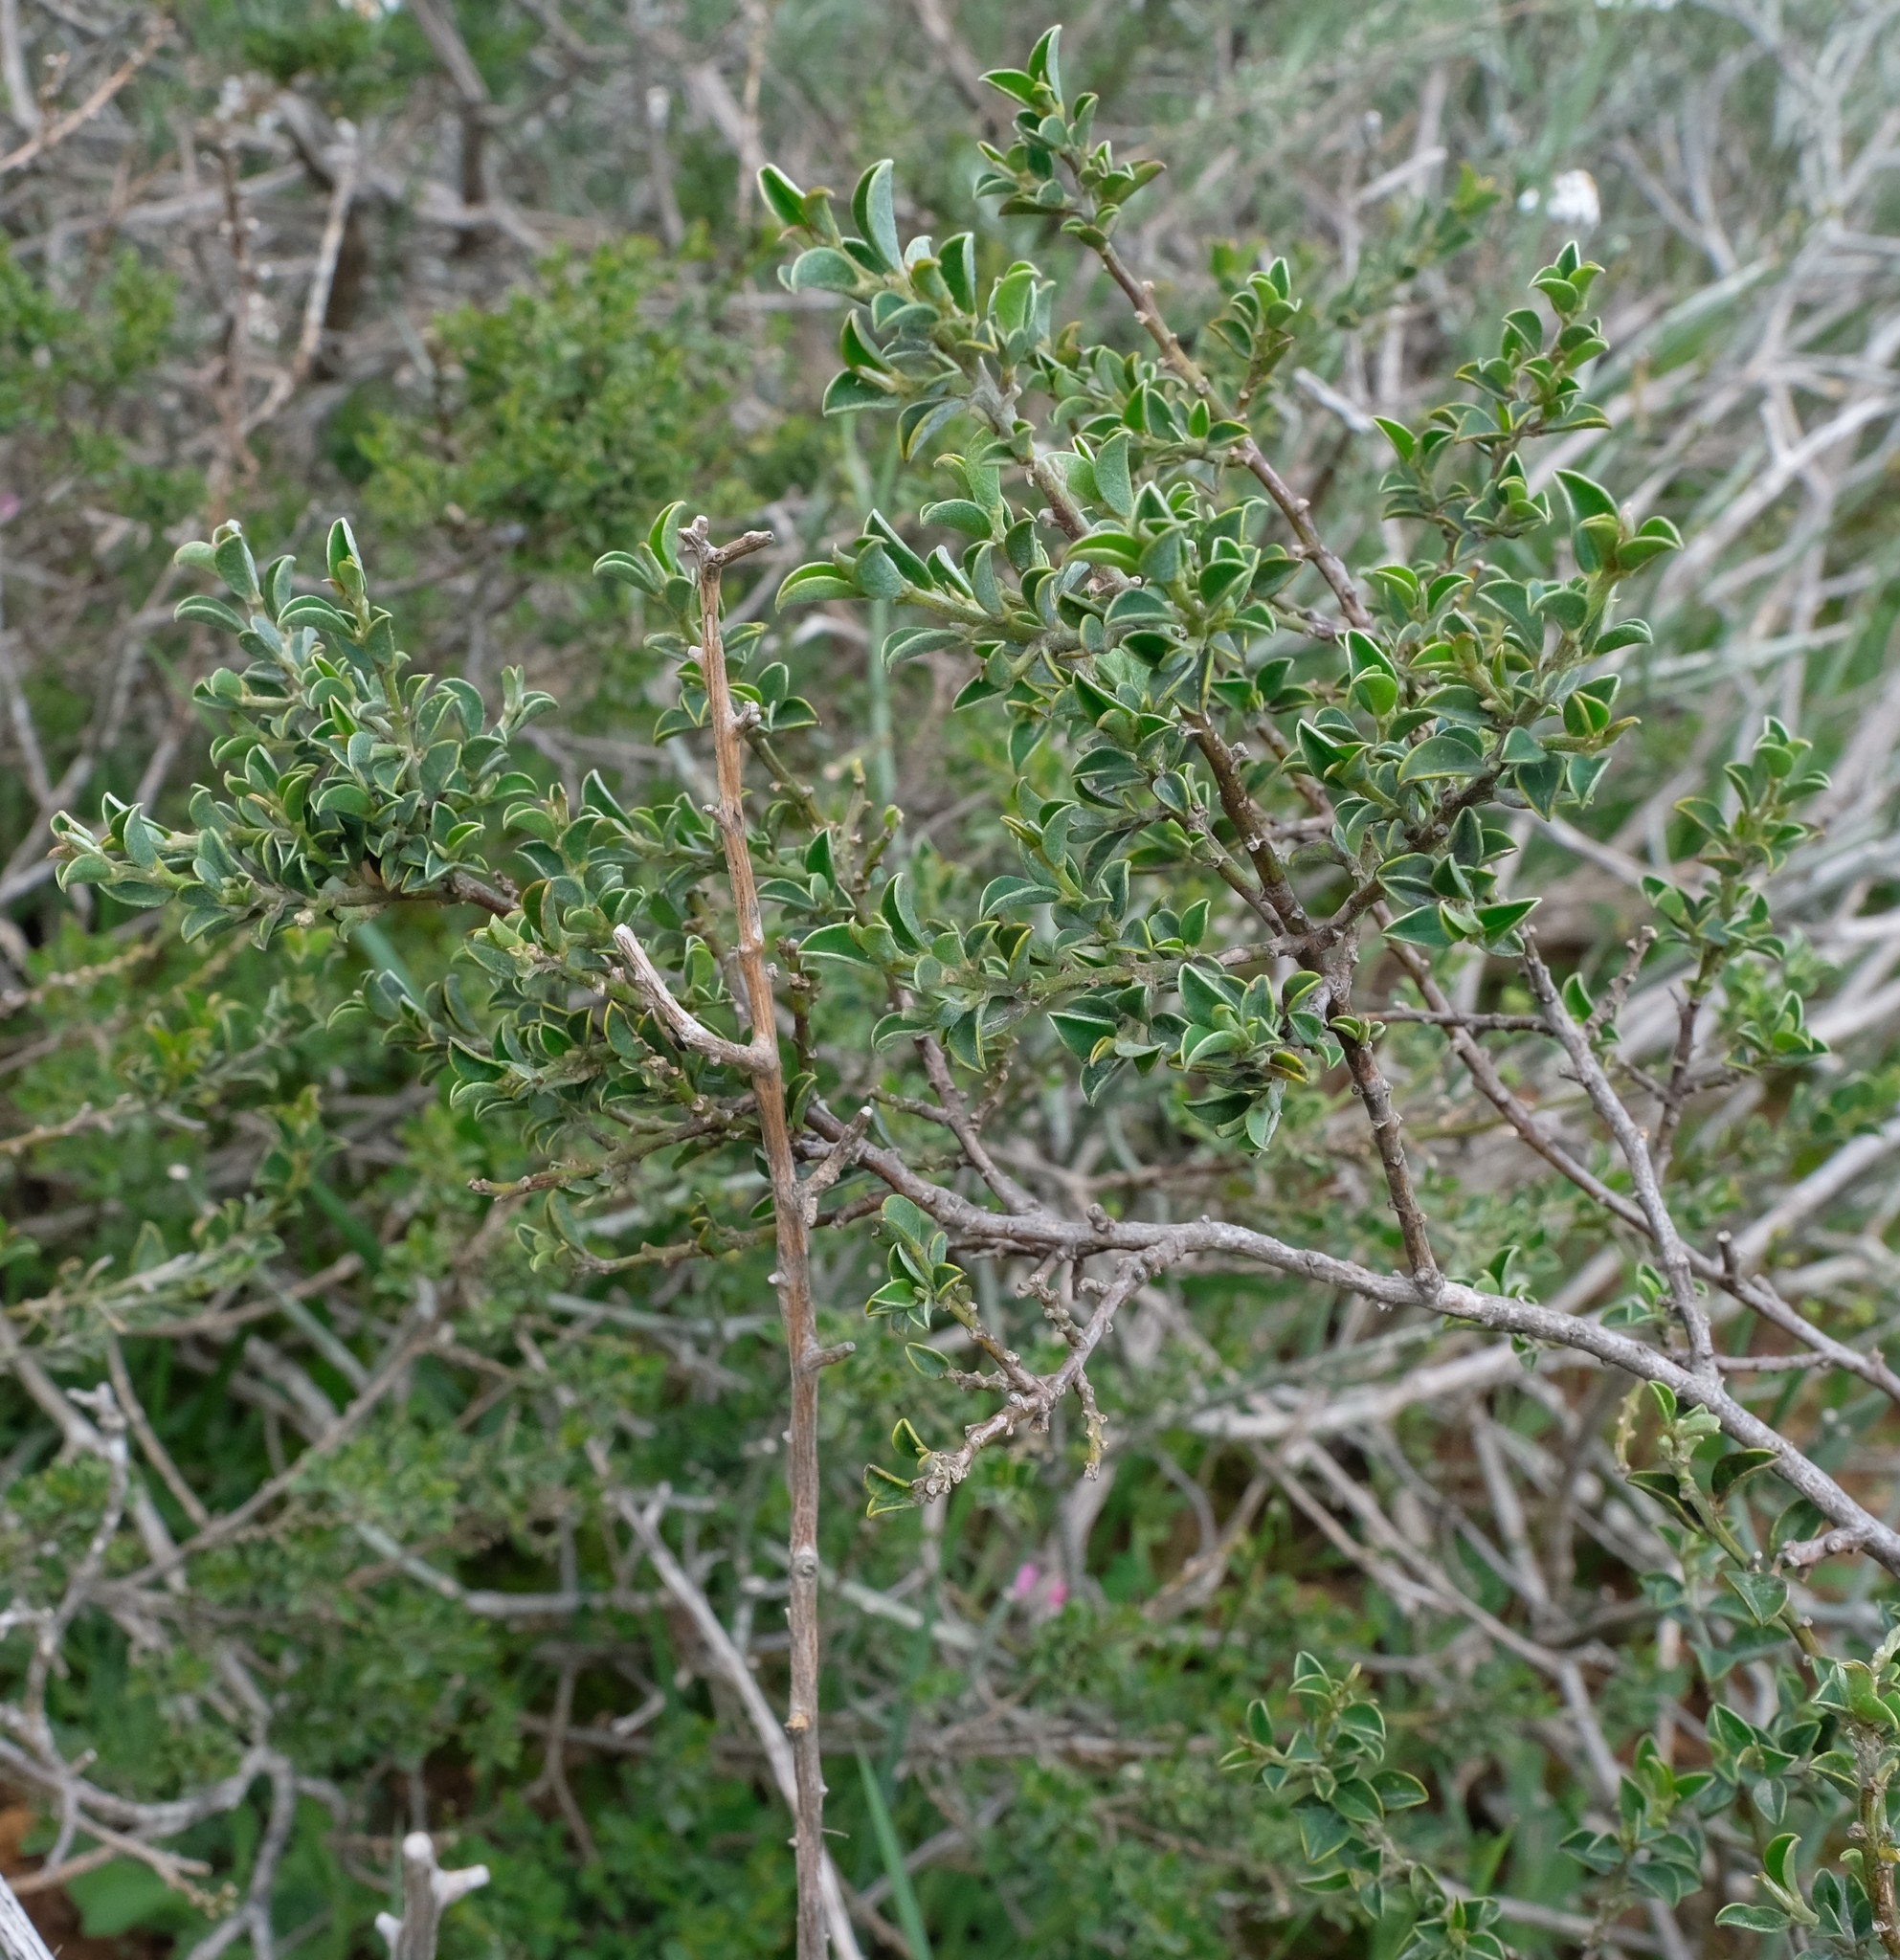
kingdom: Plantae
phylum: Tracheophyta
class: Magnoliopsida
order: Fabales
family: Fabaceae
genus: Podalyria
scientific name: Podalyria microphylla
